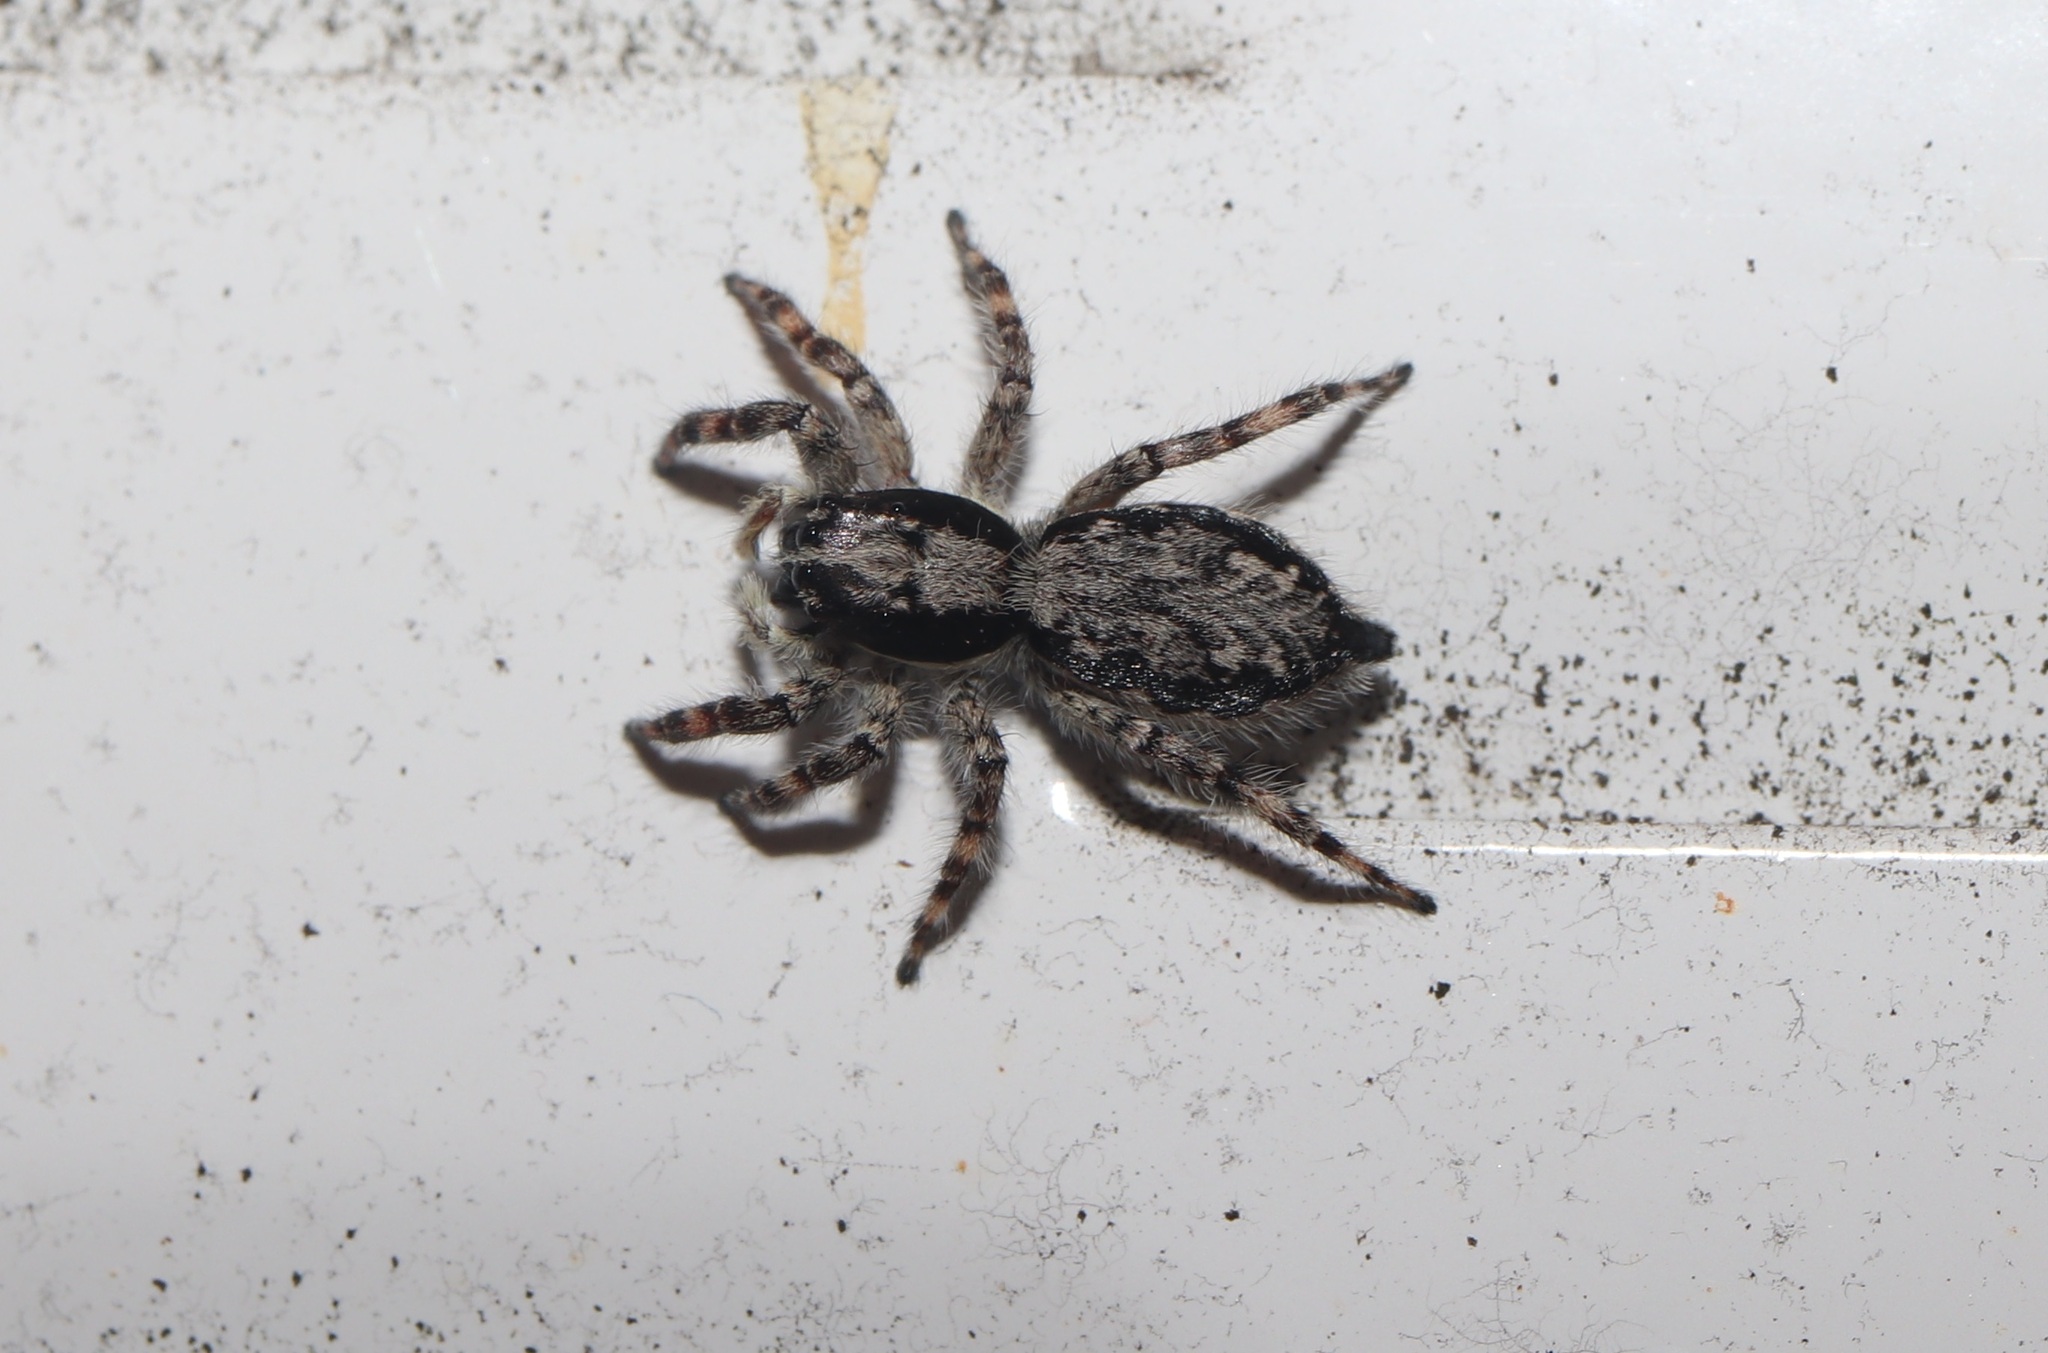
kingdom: Animalia
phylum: Arthropoda
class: Arachnida
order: Araneae
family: Salticidae
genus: Menemerus
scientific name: Menemerus fulvus
